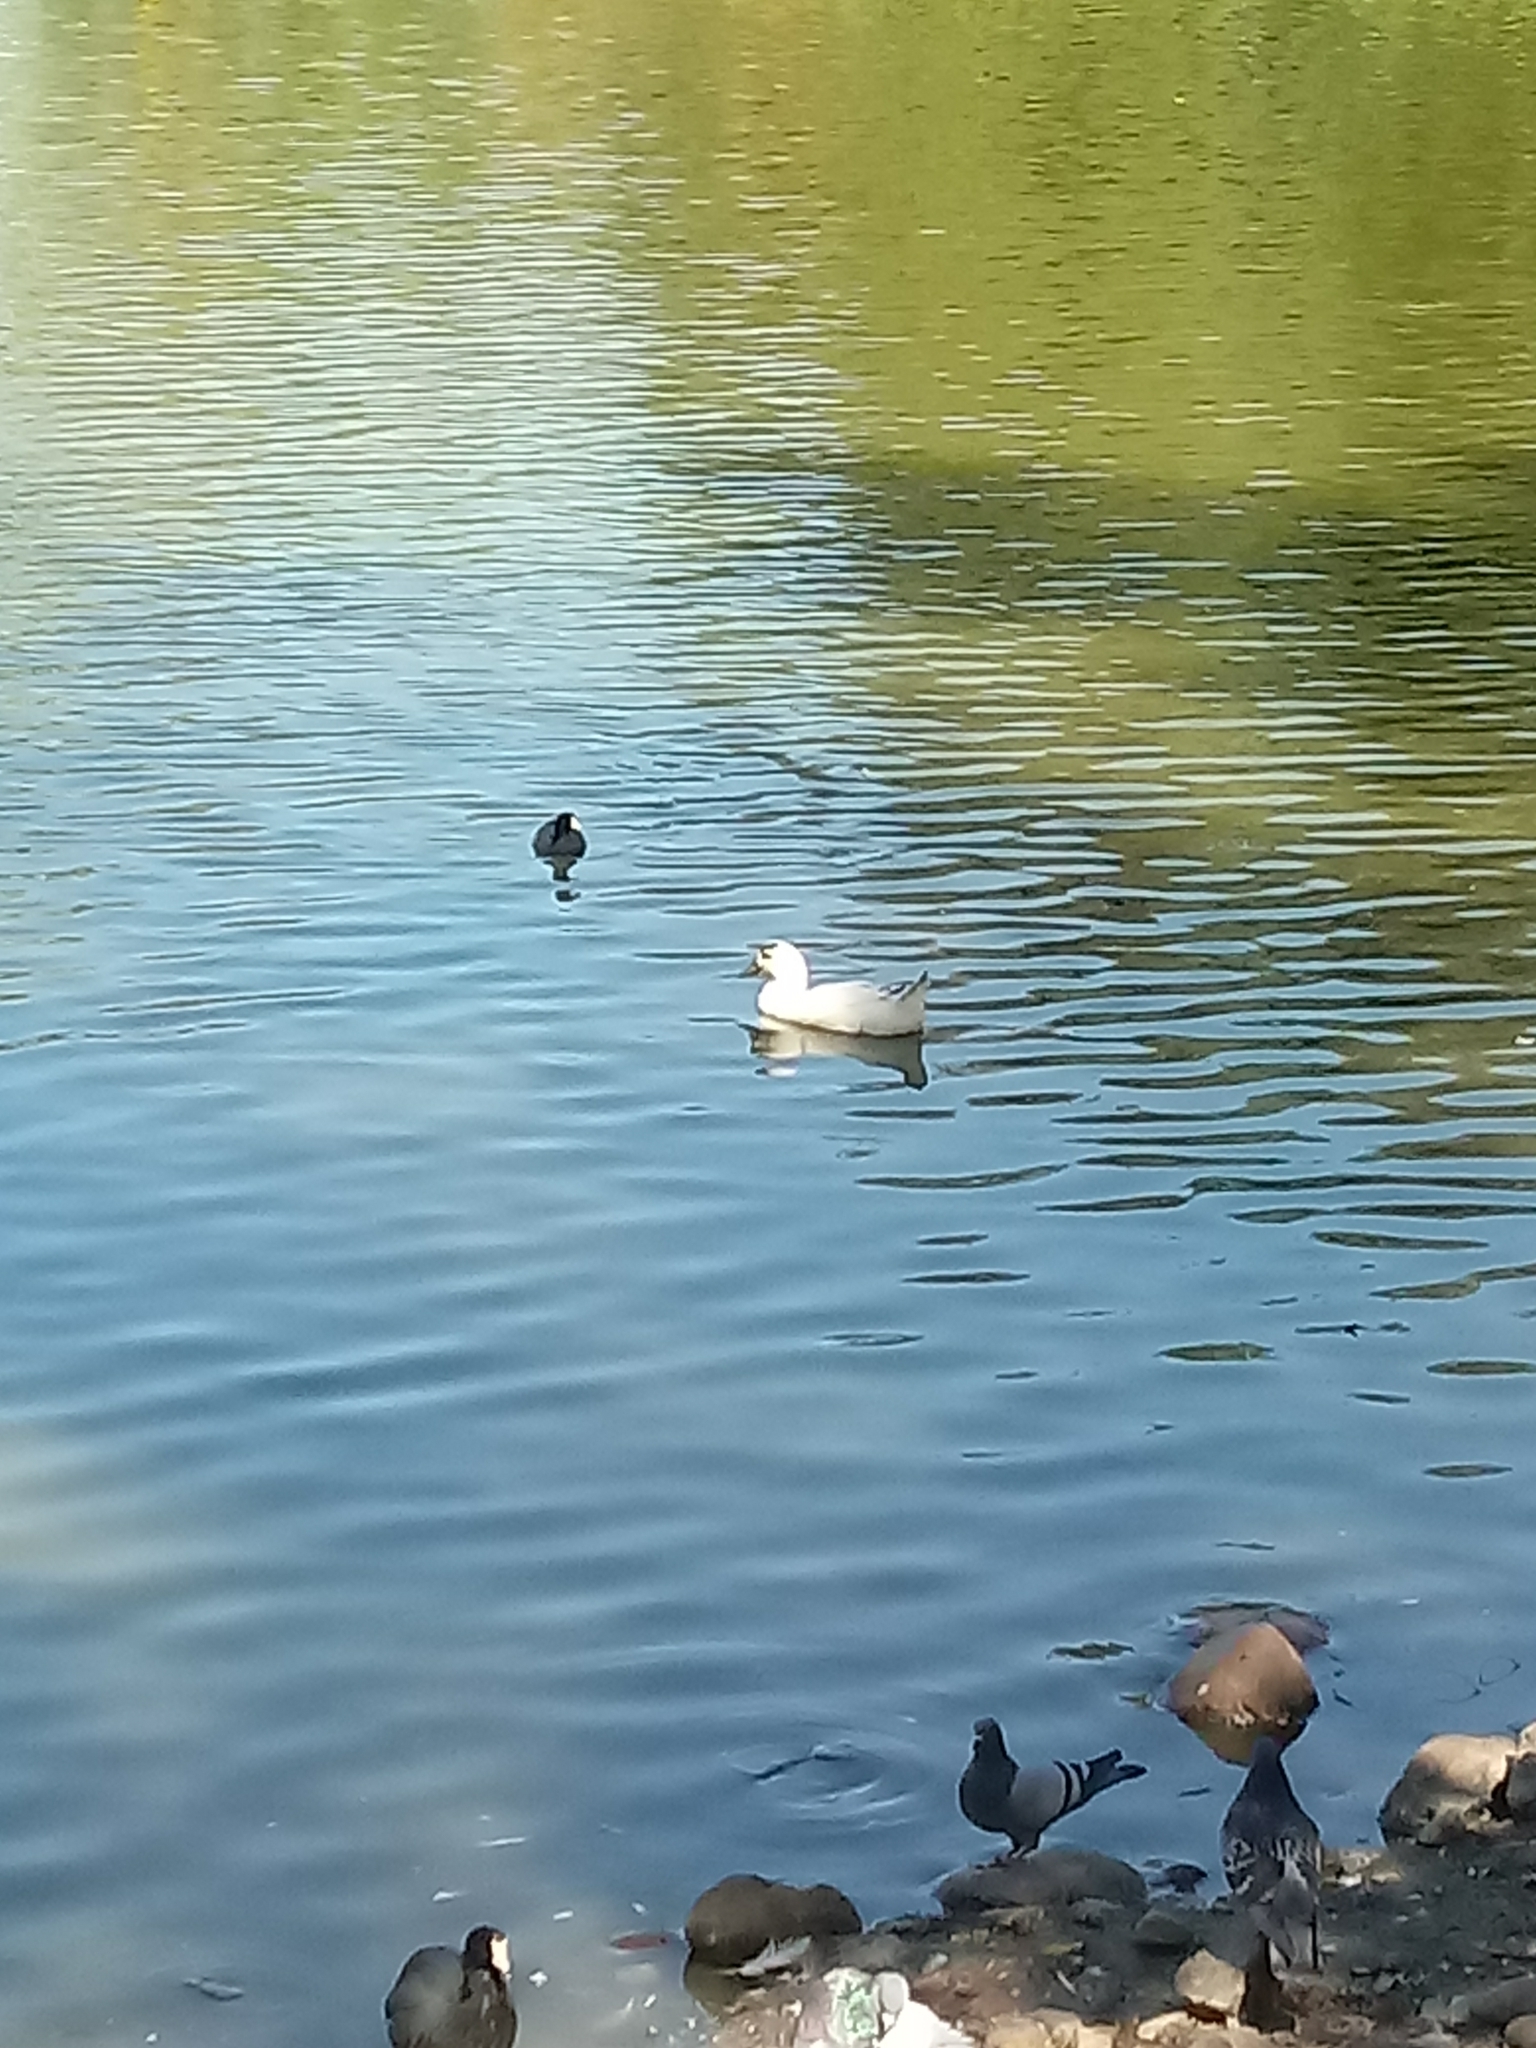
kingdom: Animalia
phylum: Chordata
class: Aves
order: Anseriformes
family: Anatidae
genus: Anas
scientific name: Anas platyrhynchos
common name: Mallard
